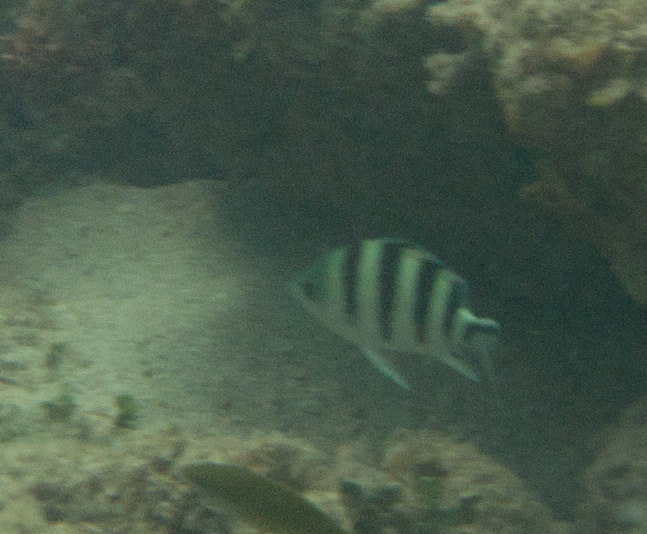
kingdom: Animalia
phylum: Chordata
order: Perciformes
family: Pomacentridae
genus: Abudefduf
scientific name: Abudefduf sexfasciatus
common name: Scissortail sergeant
